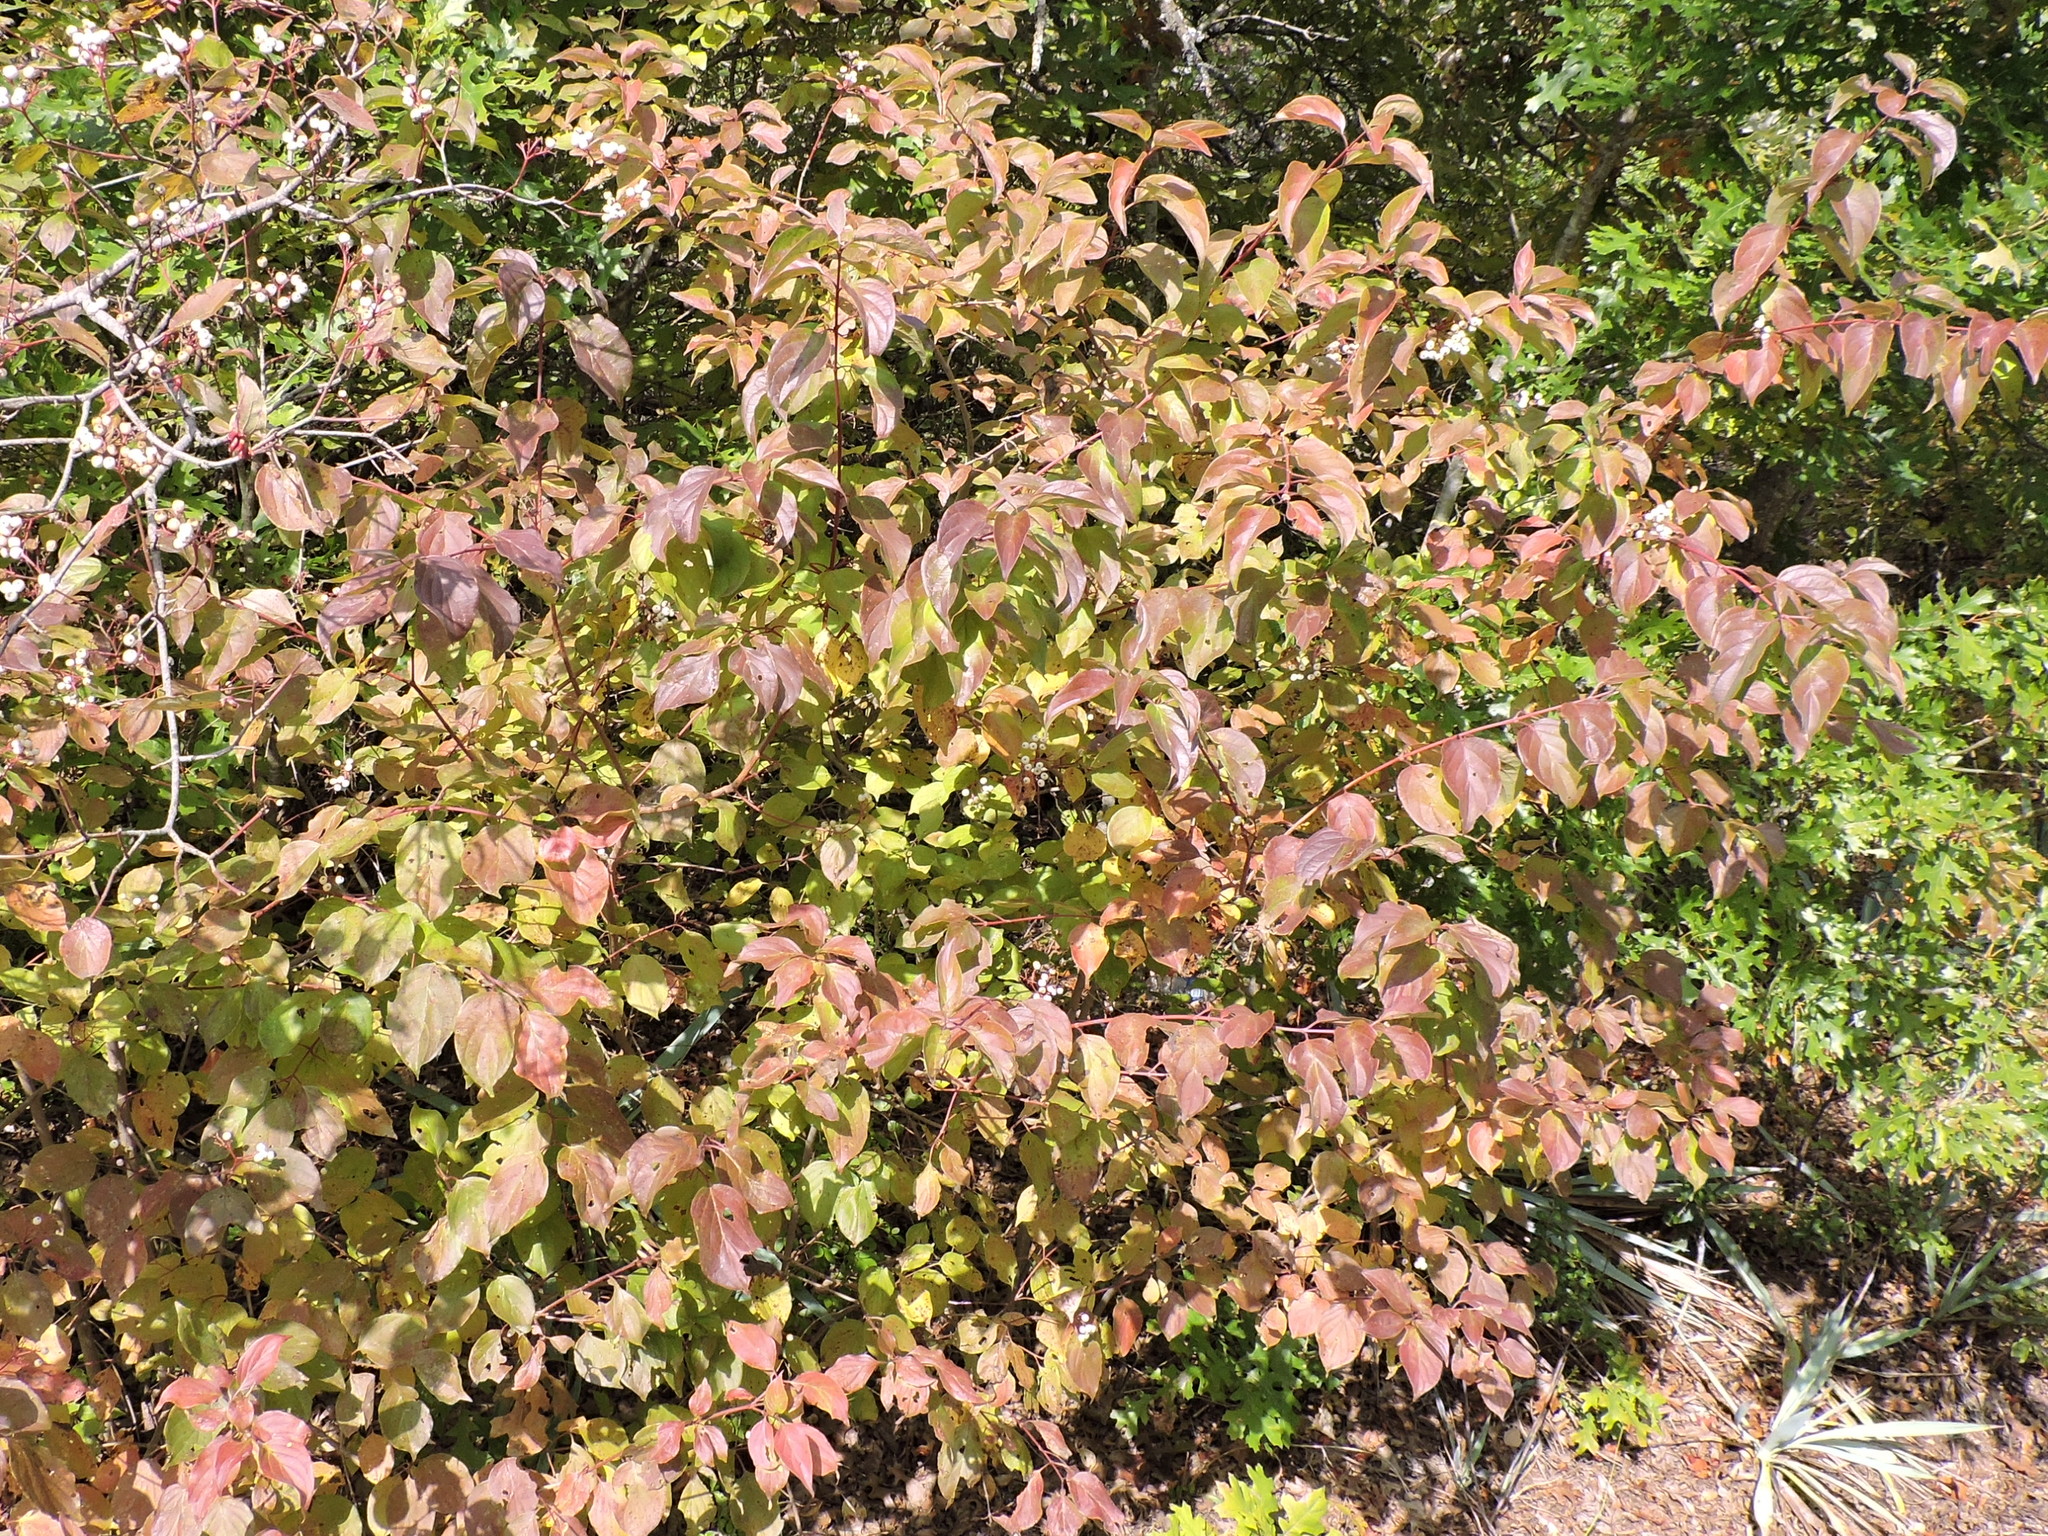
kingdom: Plantae
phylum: Tracheophyta
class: Magnoliopsida
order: Cornales
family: Cornaceae
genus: Cornus
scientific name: Cornus drummondii
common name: Rough-leaf dogwood
